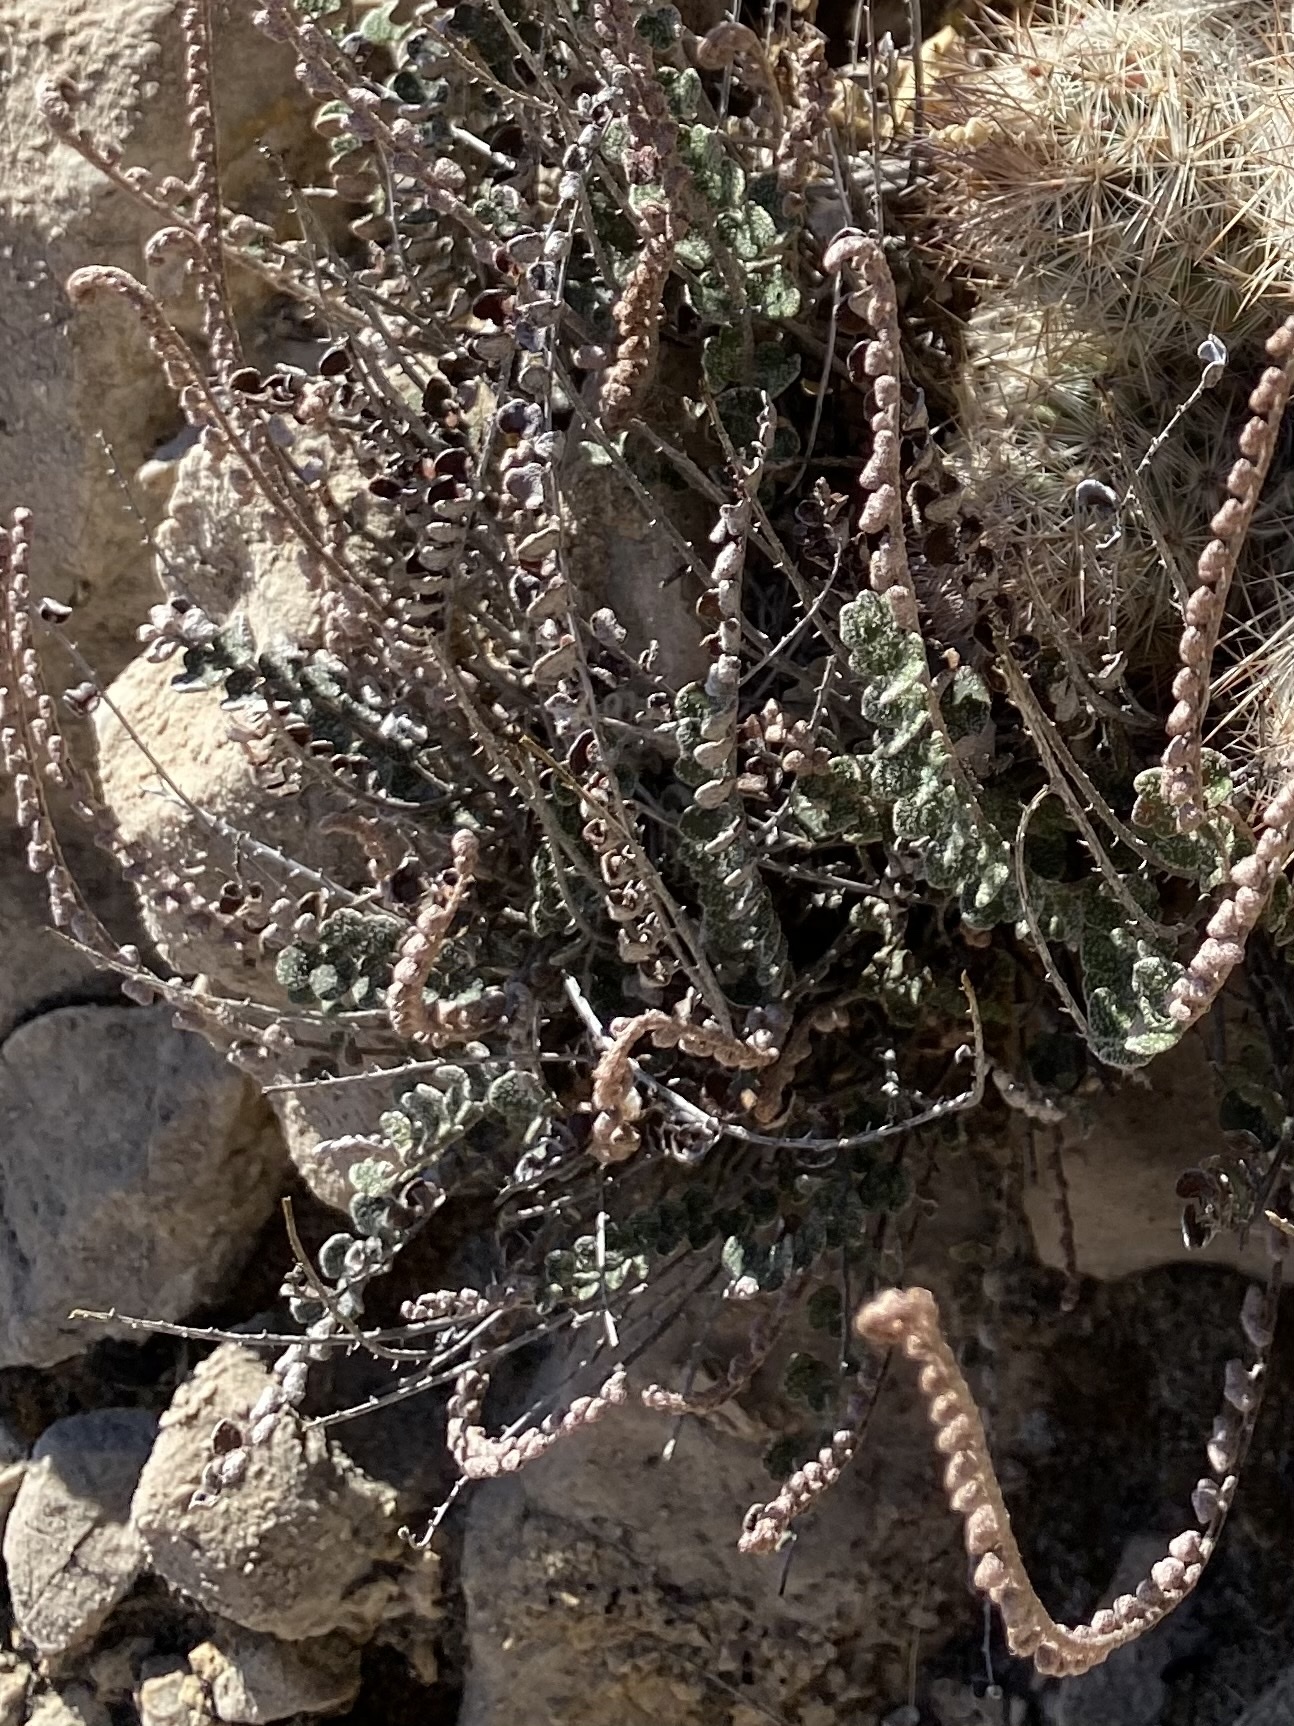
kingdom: Plantae
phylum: Tracheophyta
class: Polypodiopsida
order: Polypodiales
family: Pteridaceae
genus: Astrolepis
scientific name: Astrolepis cochisensis
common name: Scaly cloak fern
